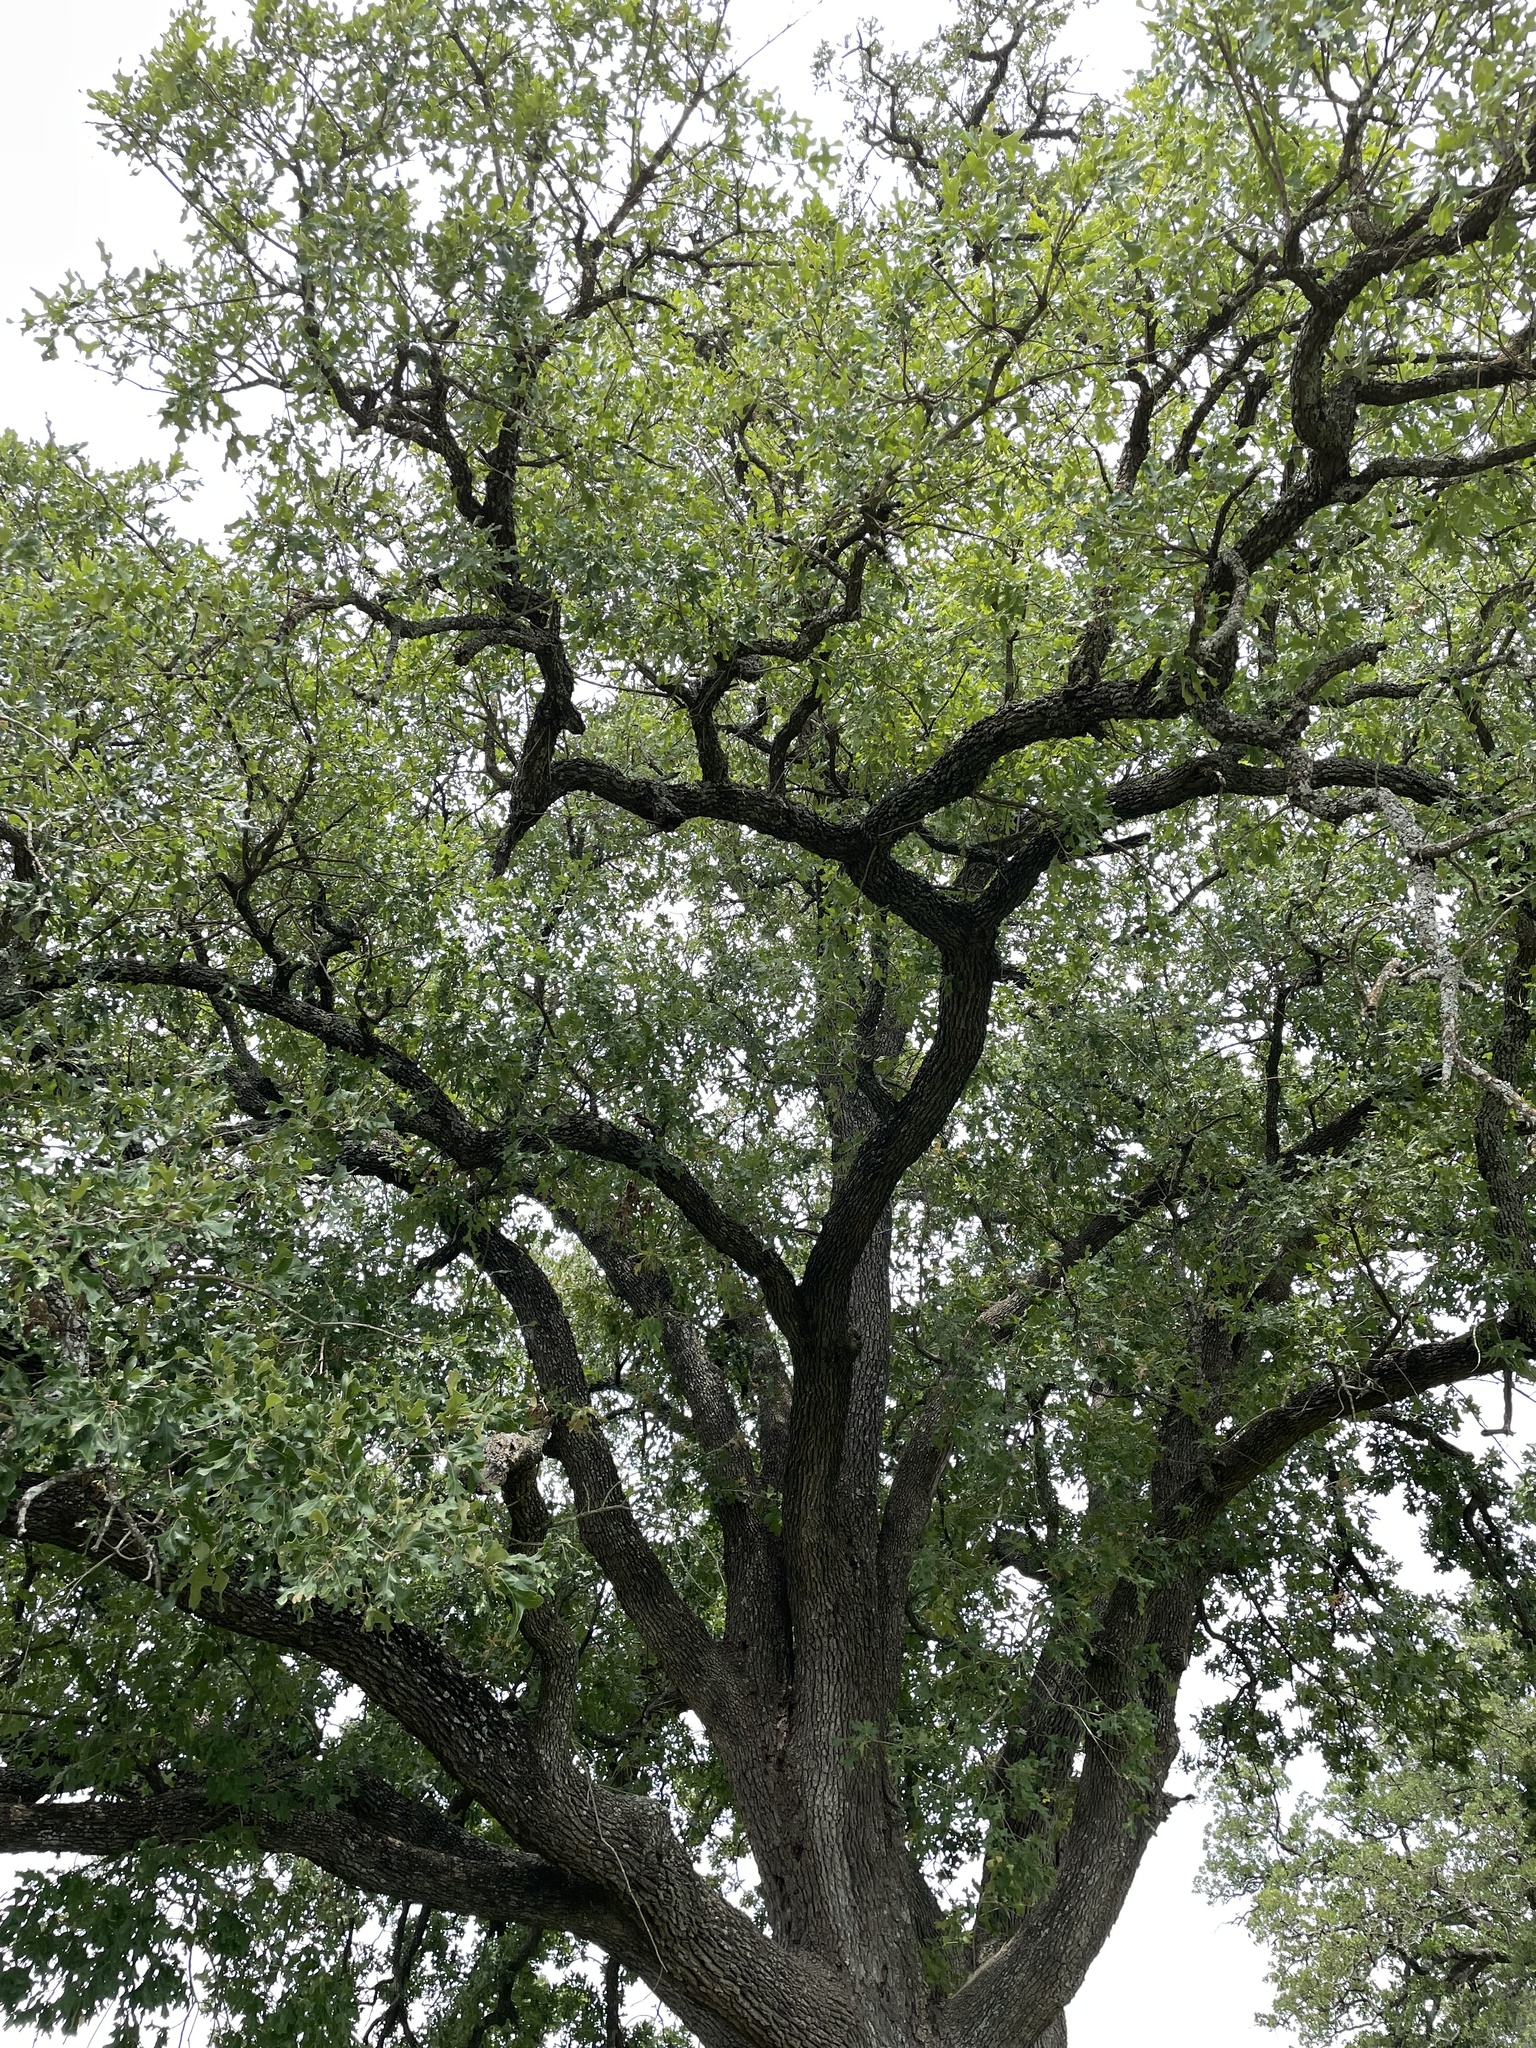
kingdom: Plantae
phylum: Tracheophyta
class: Magnoliopsida
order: Fagales
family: Fagaceae
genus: Quercus
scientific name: Quercus stellata
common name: Post oak
